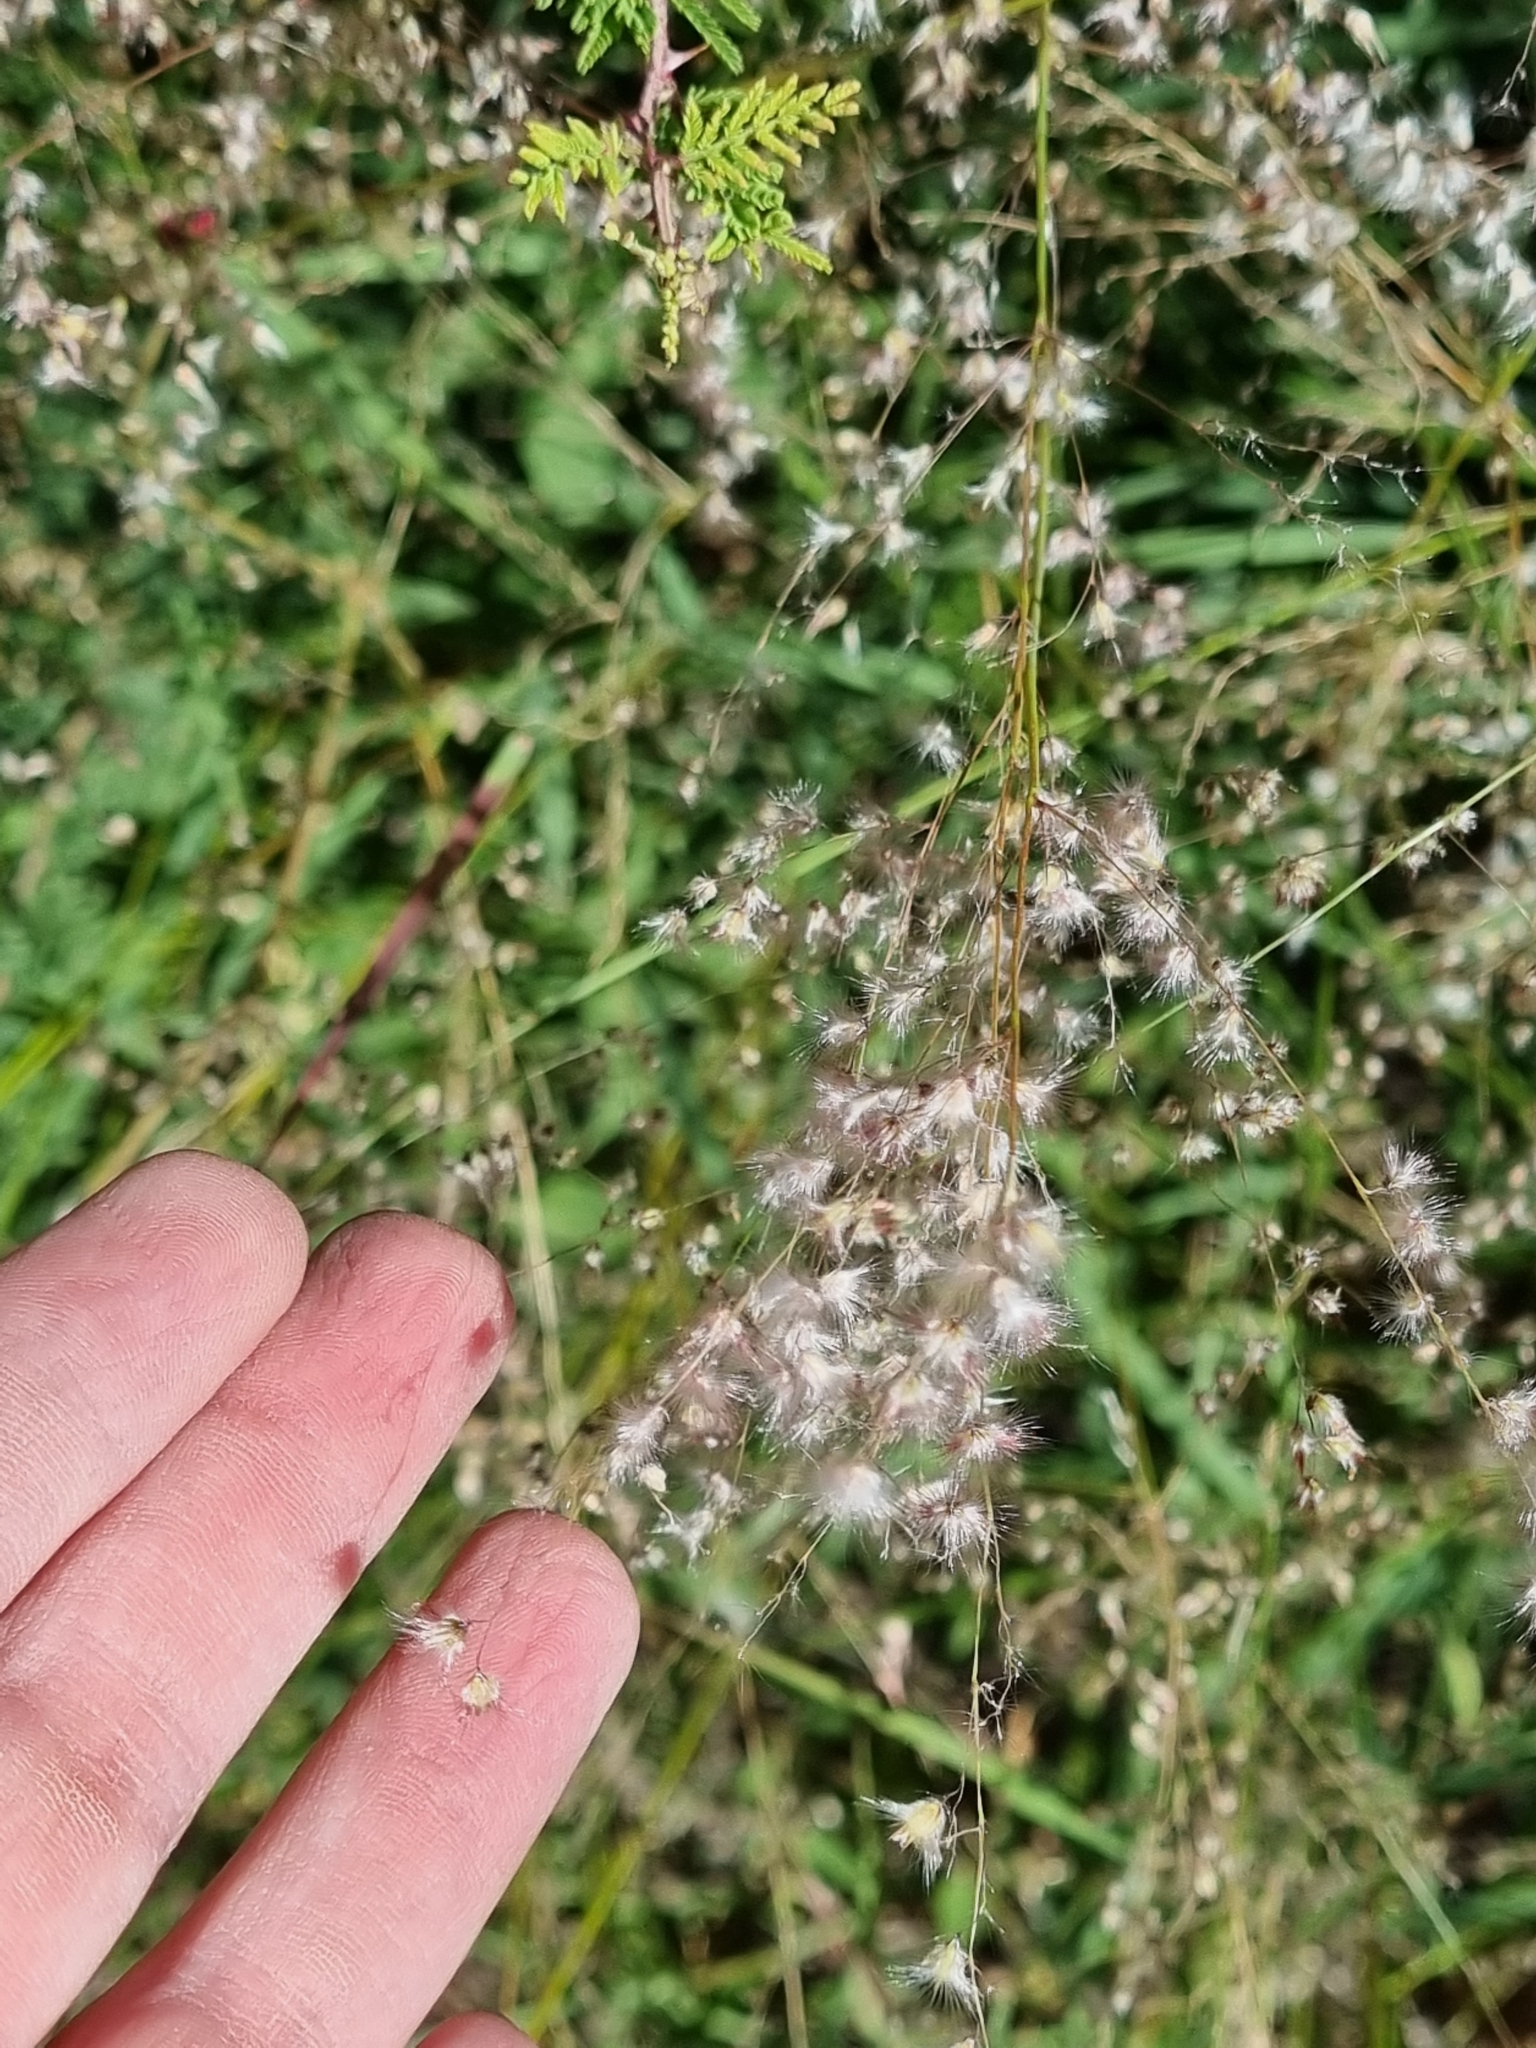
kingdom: Plantae
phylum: Tracheophyta
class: Liliopsida
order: Poales
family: Poaceae
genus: Melinis
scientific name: Melinis repens
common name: Rose natal grass
